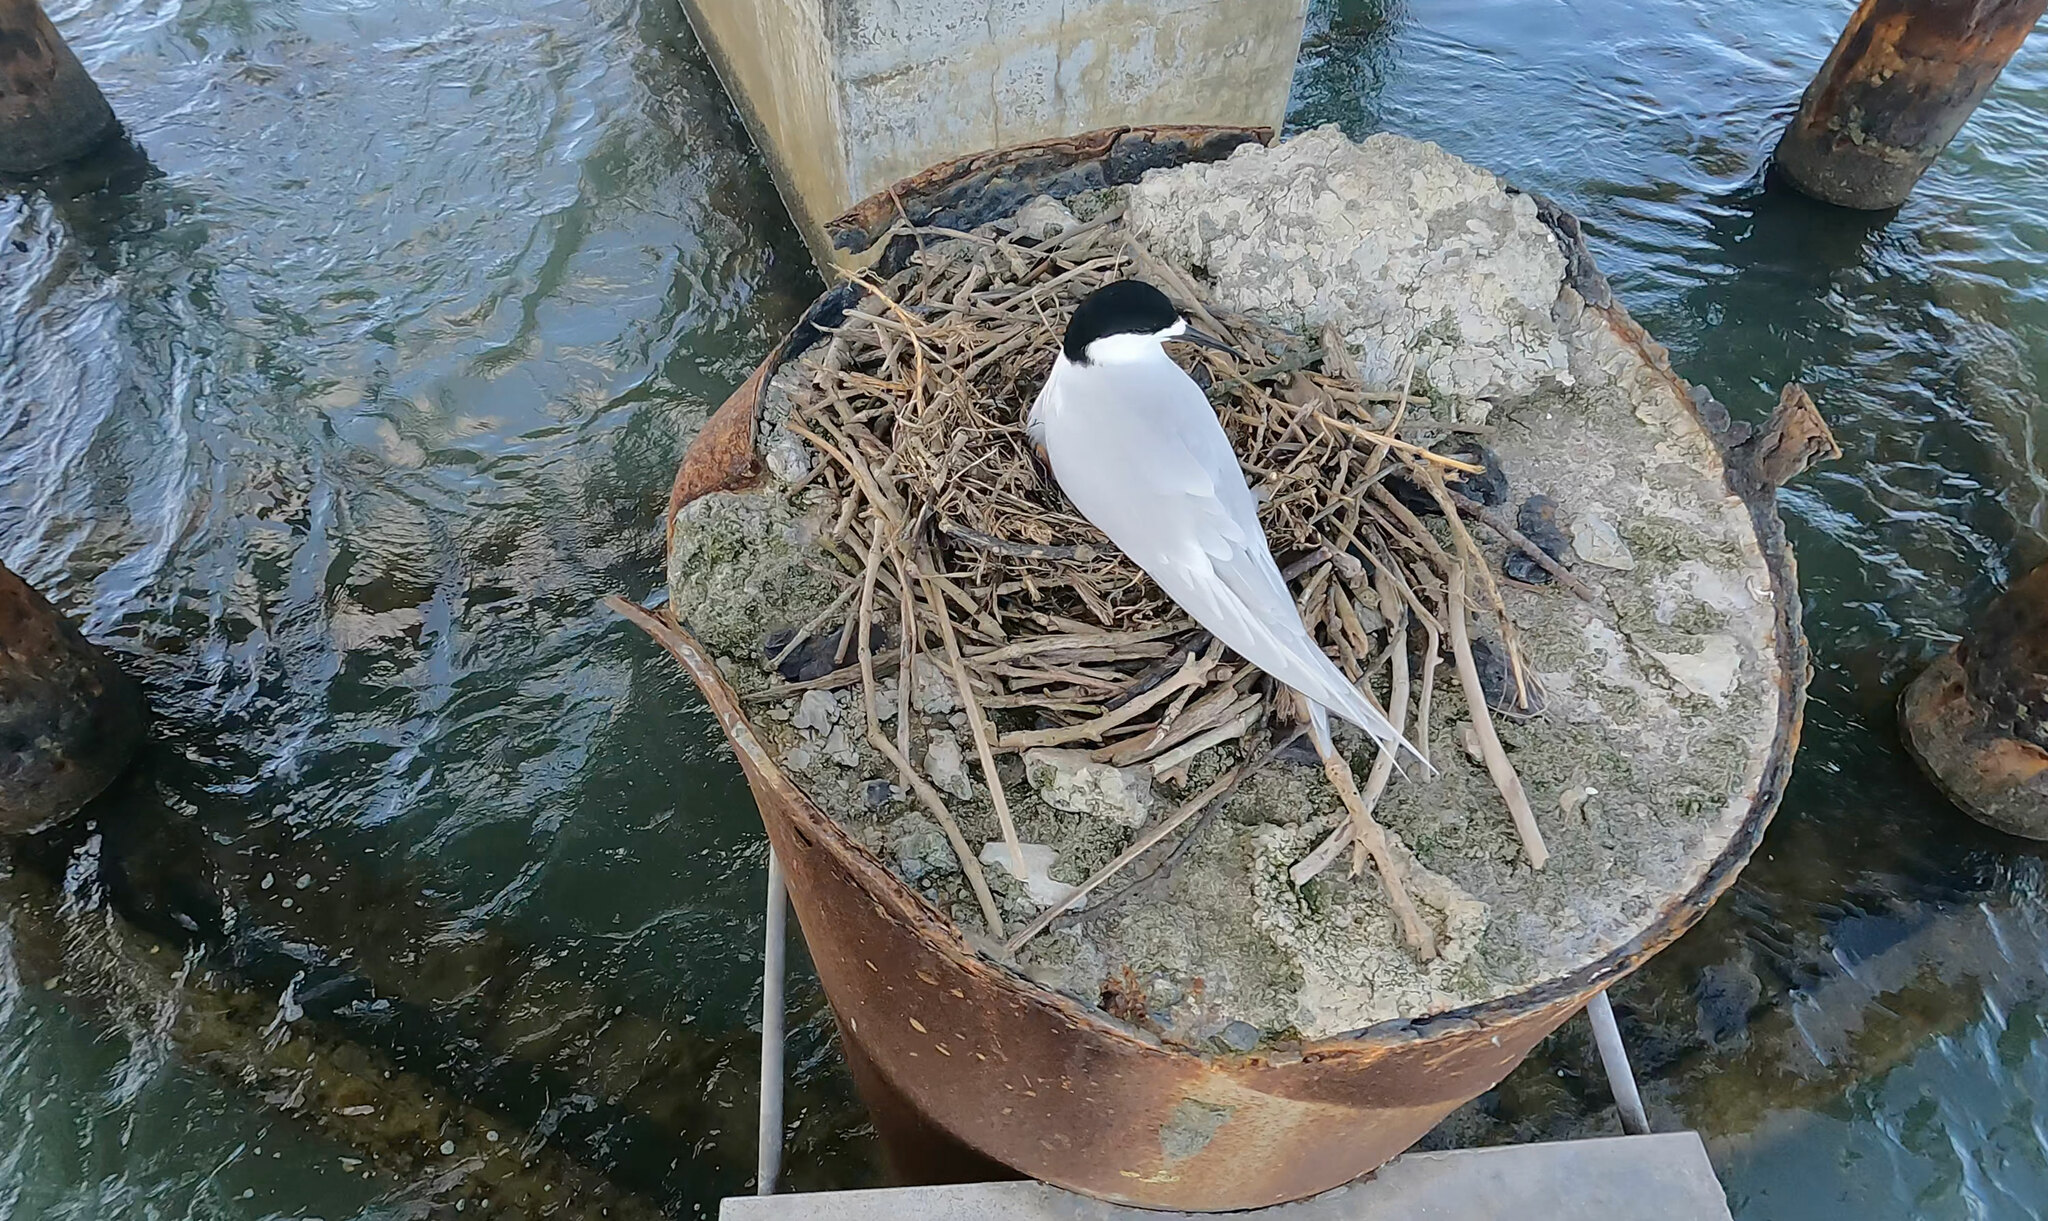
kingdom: Animalia
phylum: Chordata
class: Aves
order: Charadriiformes
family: Laridae
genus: Sterna
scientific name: Sterna striata
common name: White-fronted tern
